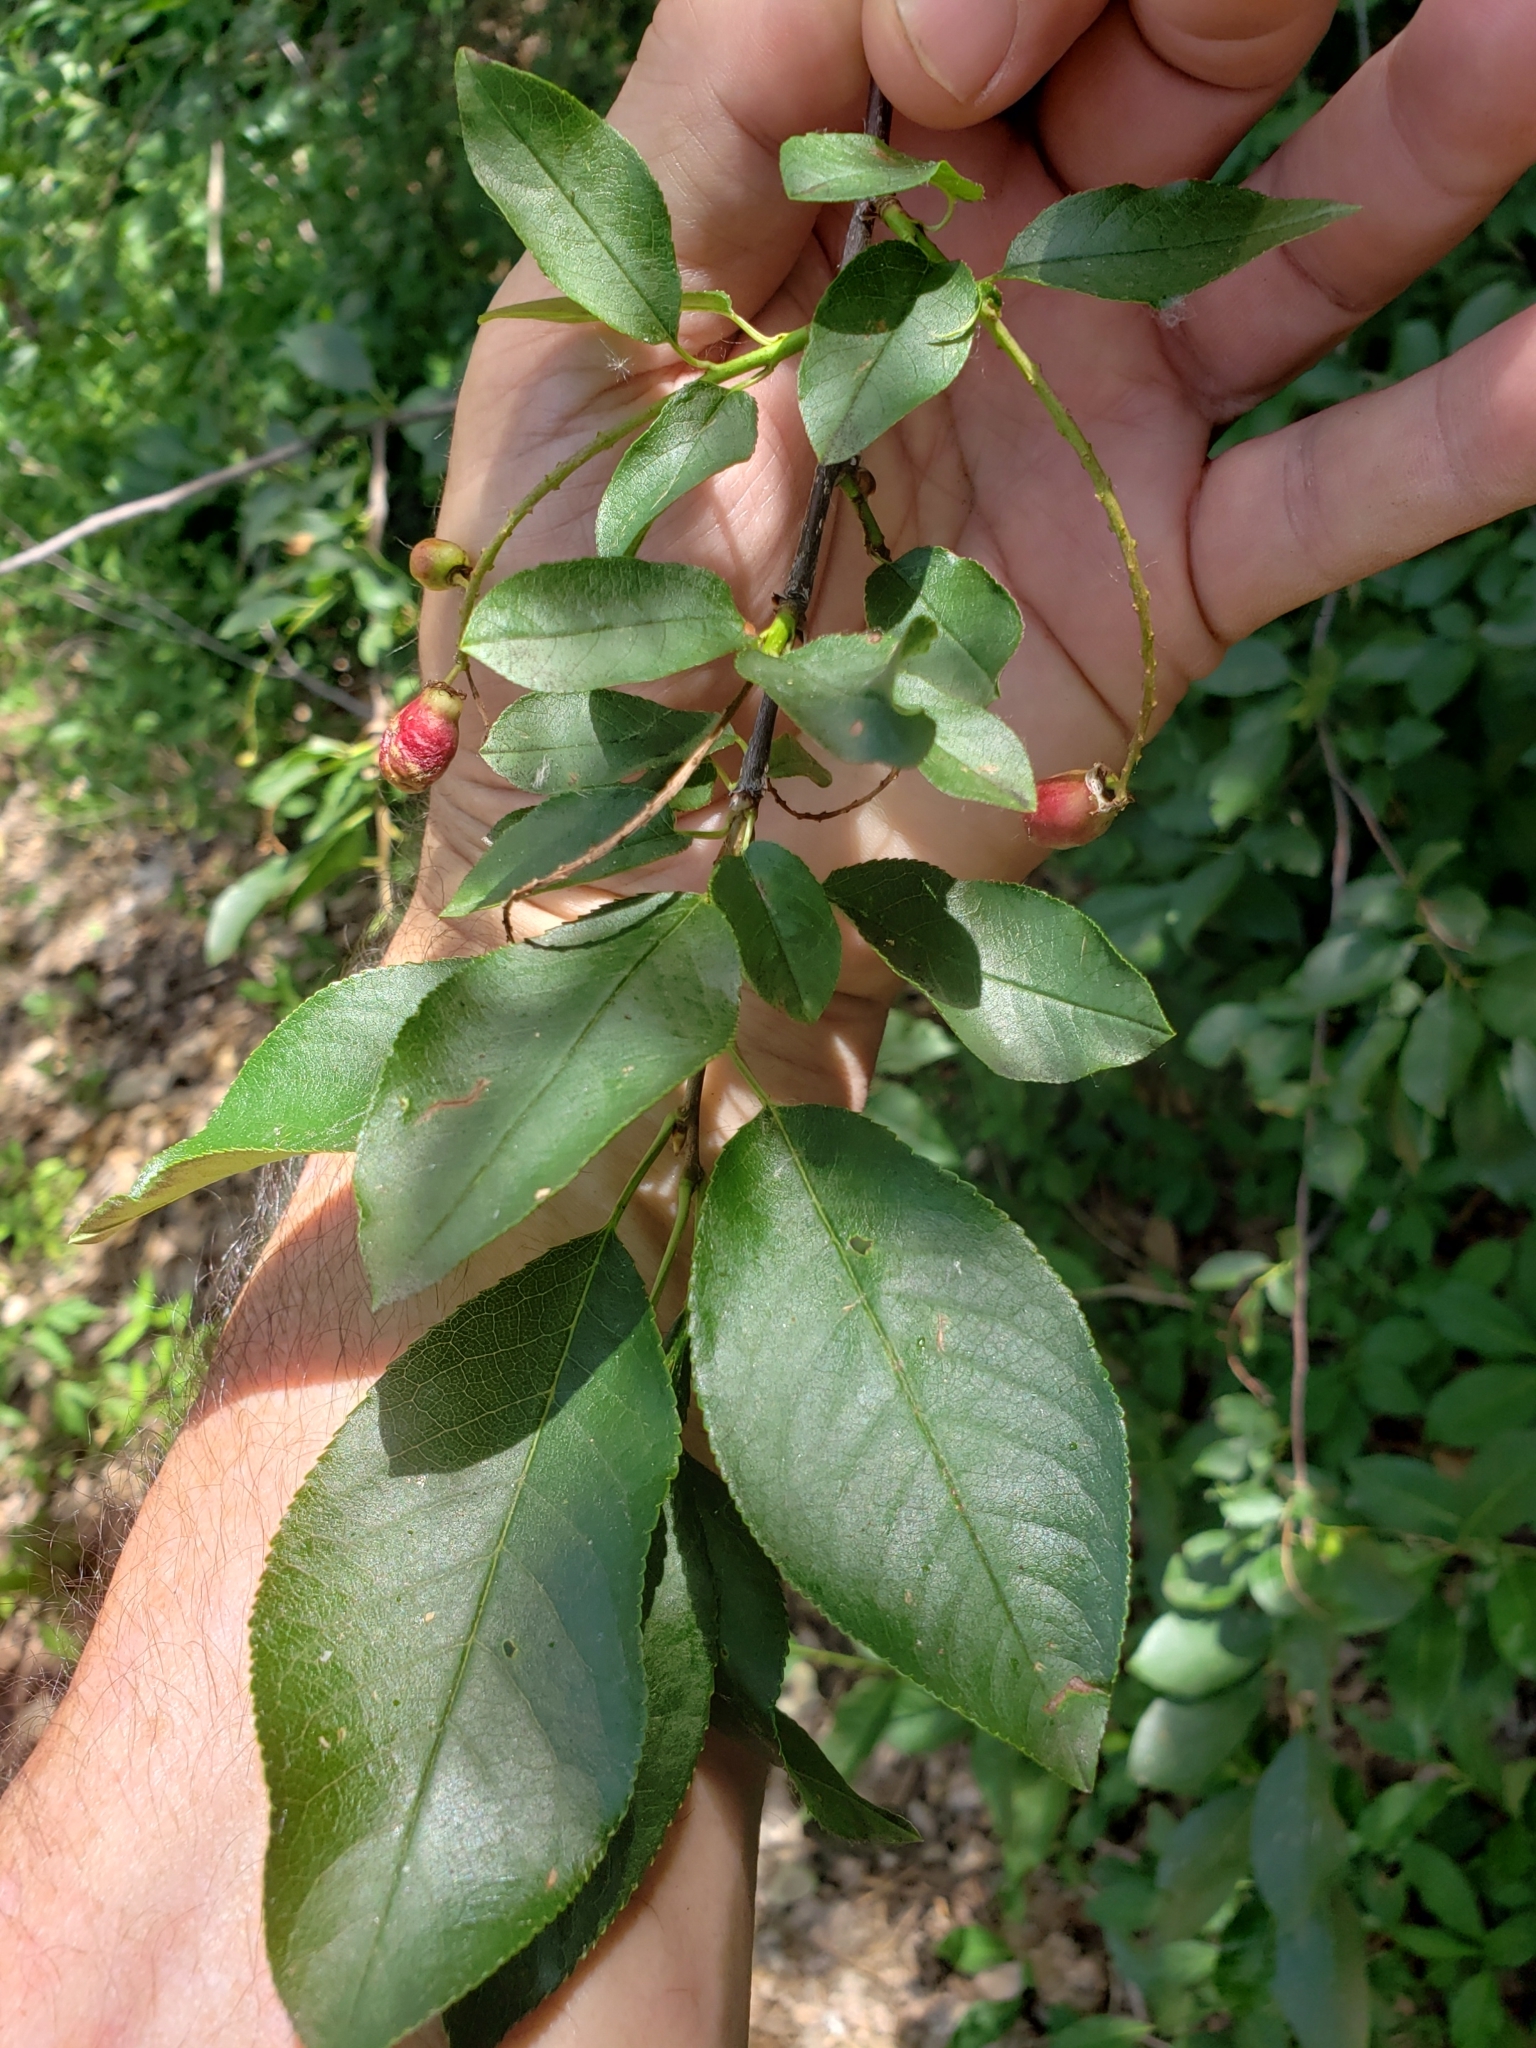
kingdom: Plantae
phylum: Tracheophyta
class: Magnoliopsida
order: Rosales
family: Rosaceae
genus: Prunus
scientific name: Prunus virginiana
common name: Chokecherry
